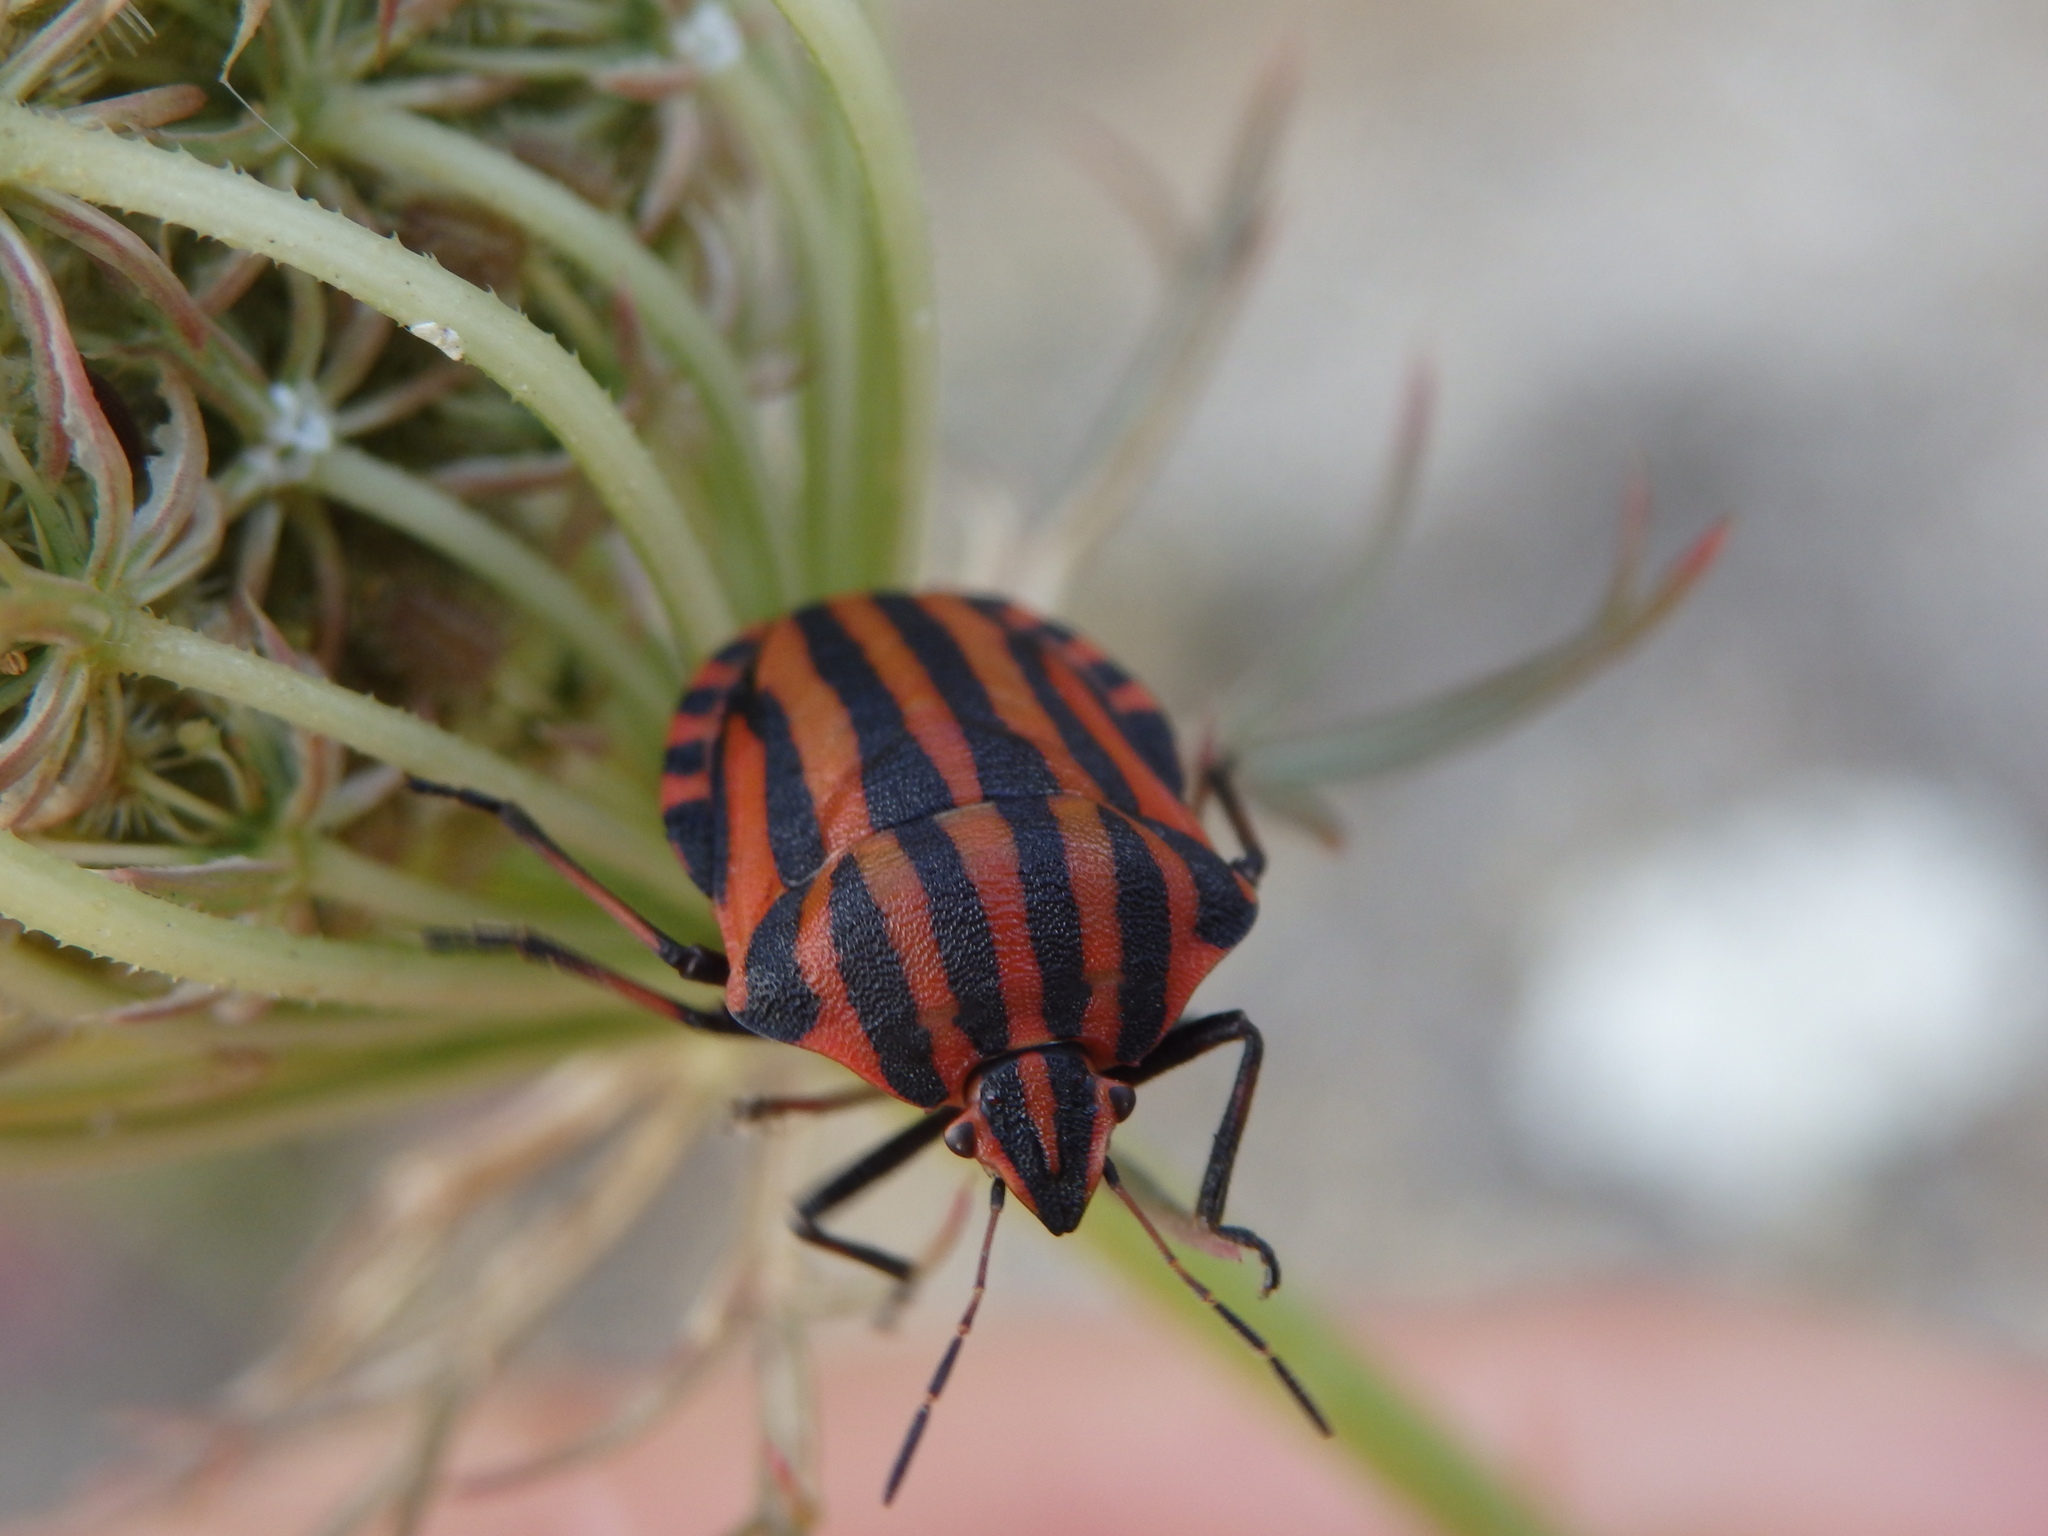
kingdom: Animalia
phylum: Arthropoda
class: Insecta
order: Hemiptera
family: Pentatomidae
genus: Graphosoma
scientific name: Graphosoma italicum
